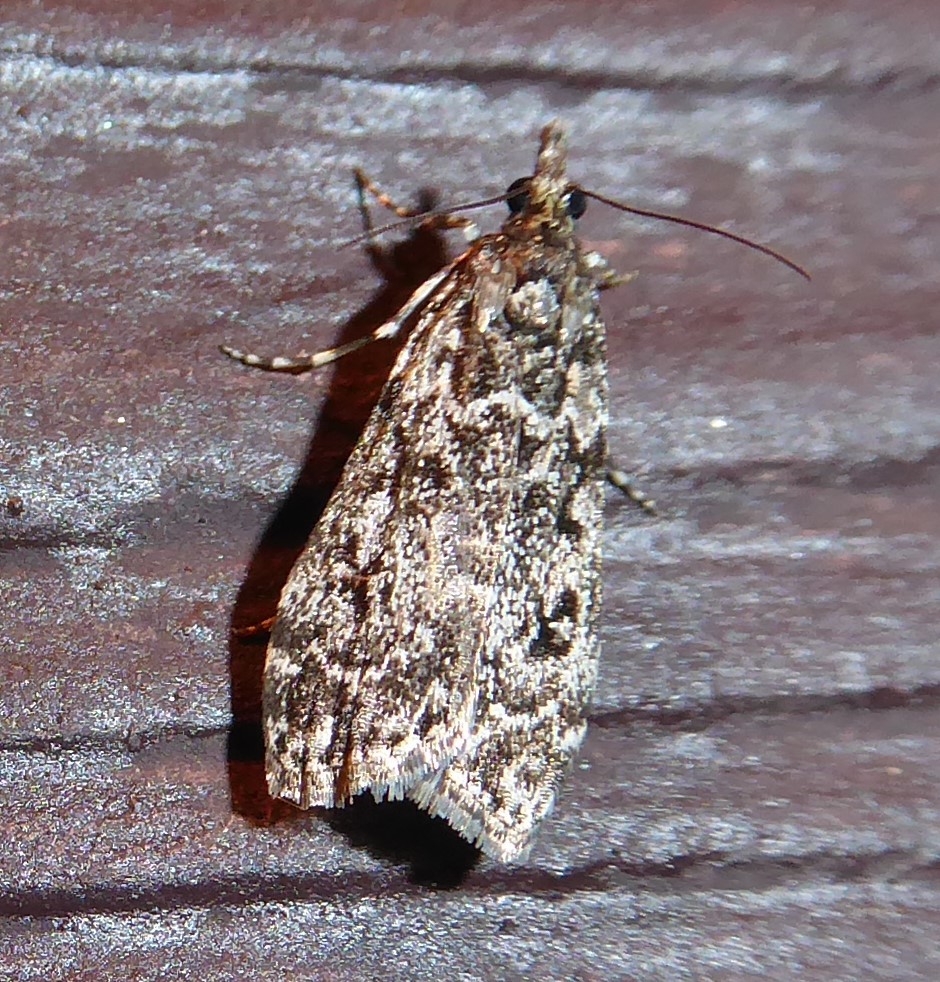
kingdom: Animalia
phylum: Arthropoda
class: Insecta
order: Lepidoptera
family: Crambidae
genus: Eudonia
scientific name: Eudonia philerga
